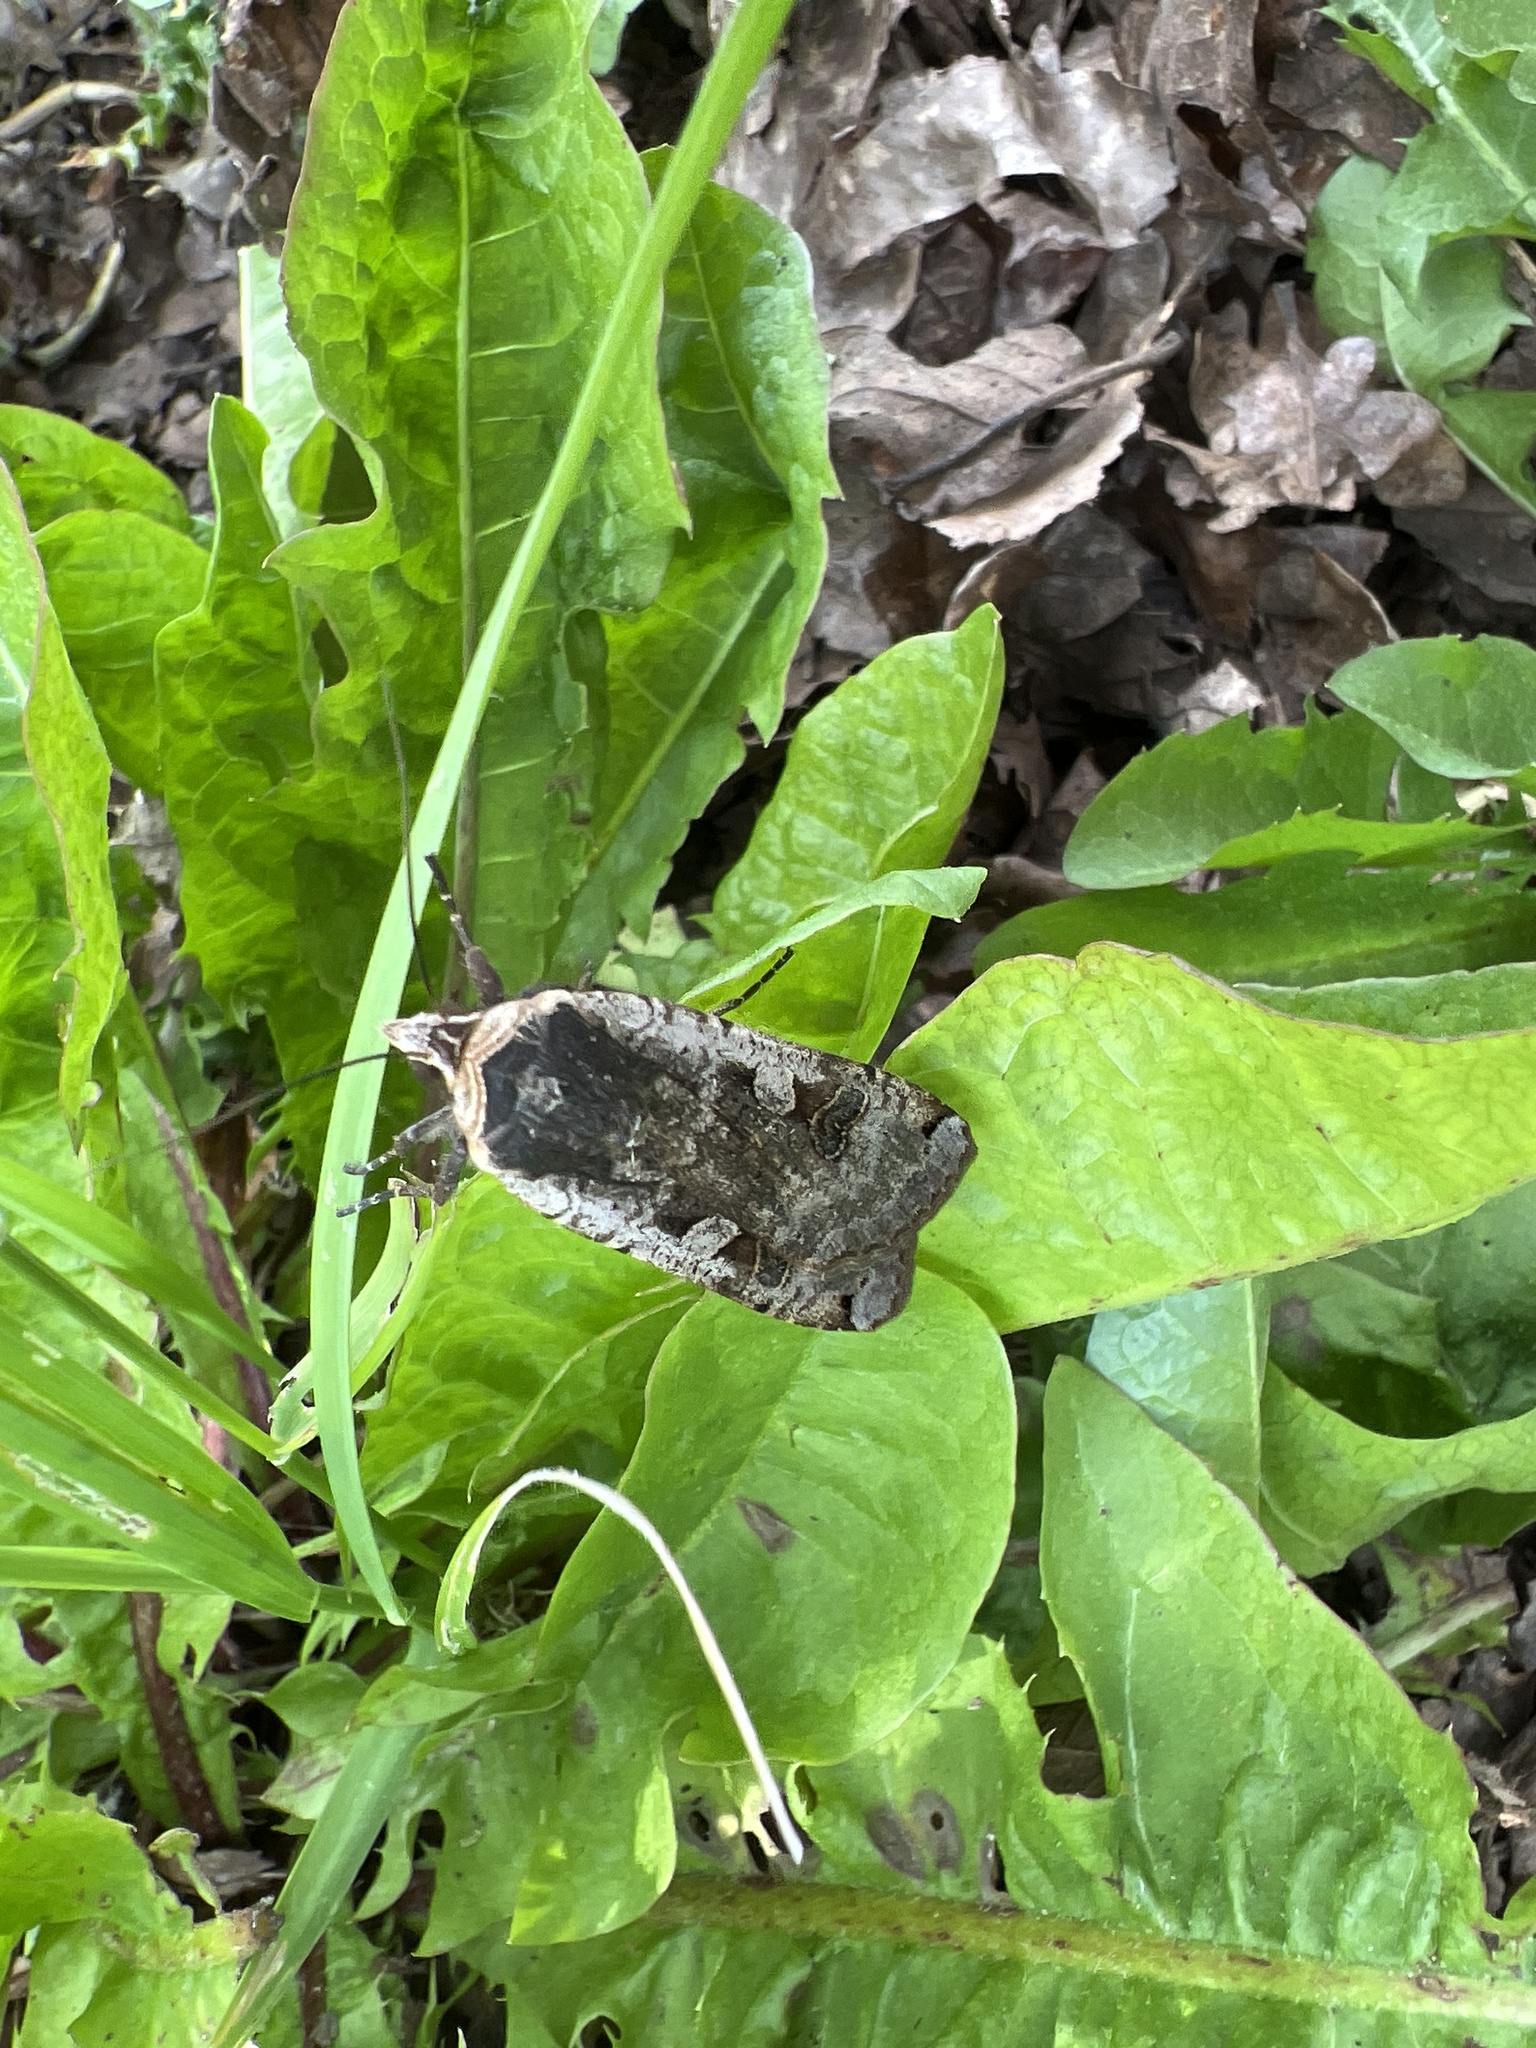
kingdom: Animalia
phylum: Arthropoda
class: Insecta
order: Lepidoptera
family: Noctuidae
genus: Noctua
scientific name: Noctua pronuba
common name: Large yellow underwing
